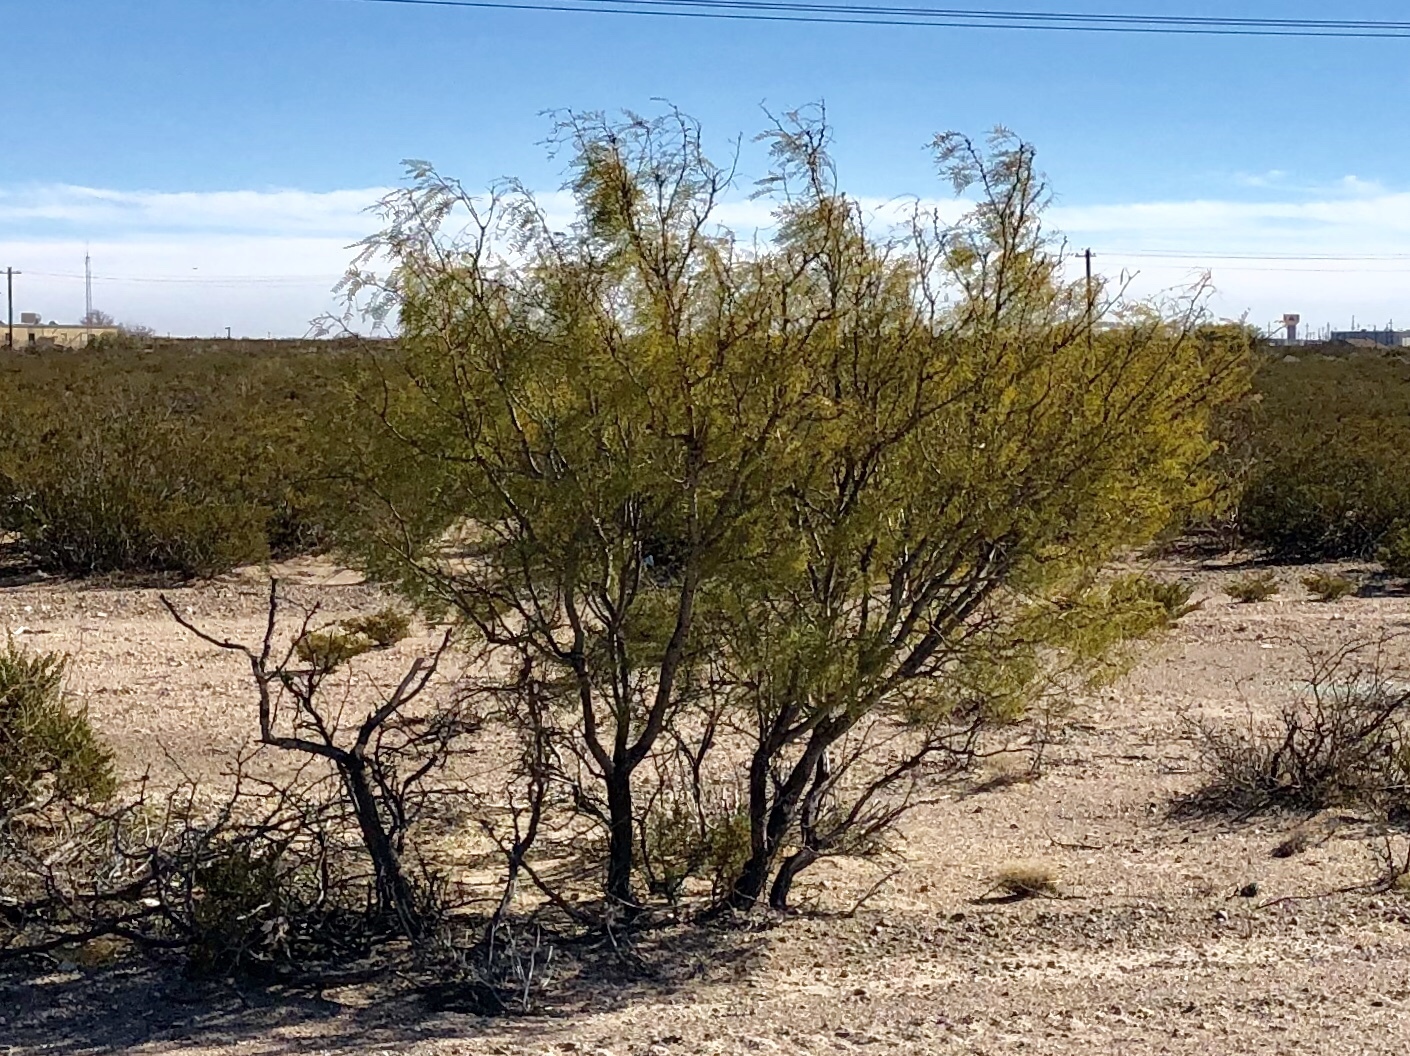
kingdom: Plantae
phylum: Tracheophyta
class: Magnoliopsida
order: Fabales
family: Fabaceae
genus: Prosopis
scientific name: Prosopis glandulosa
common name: Honey mesquite
